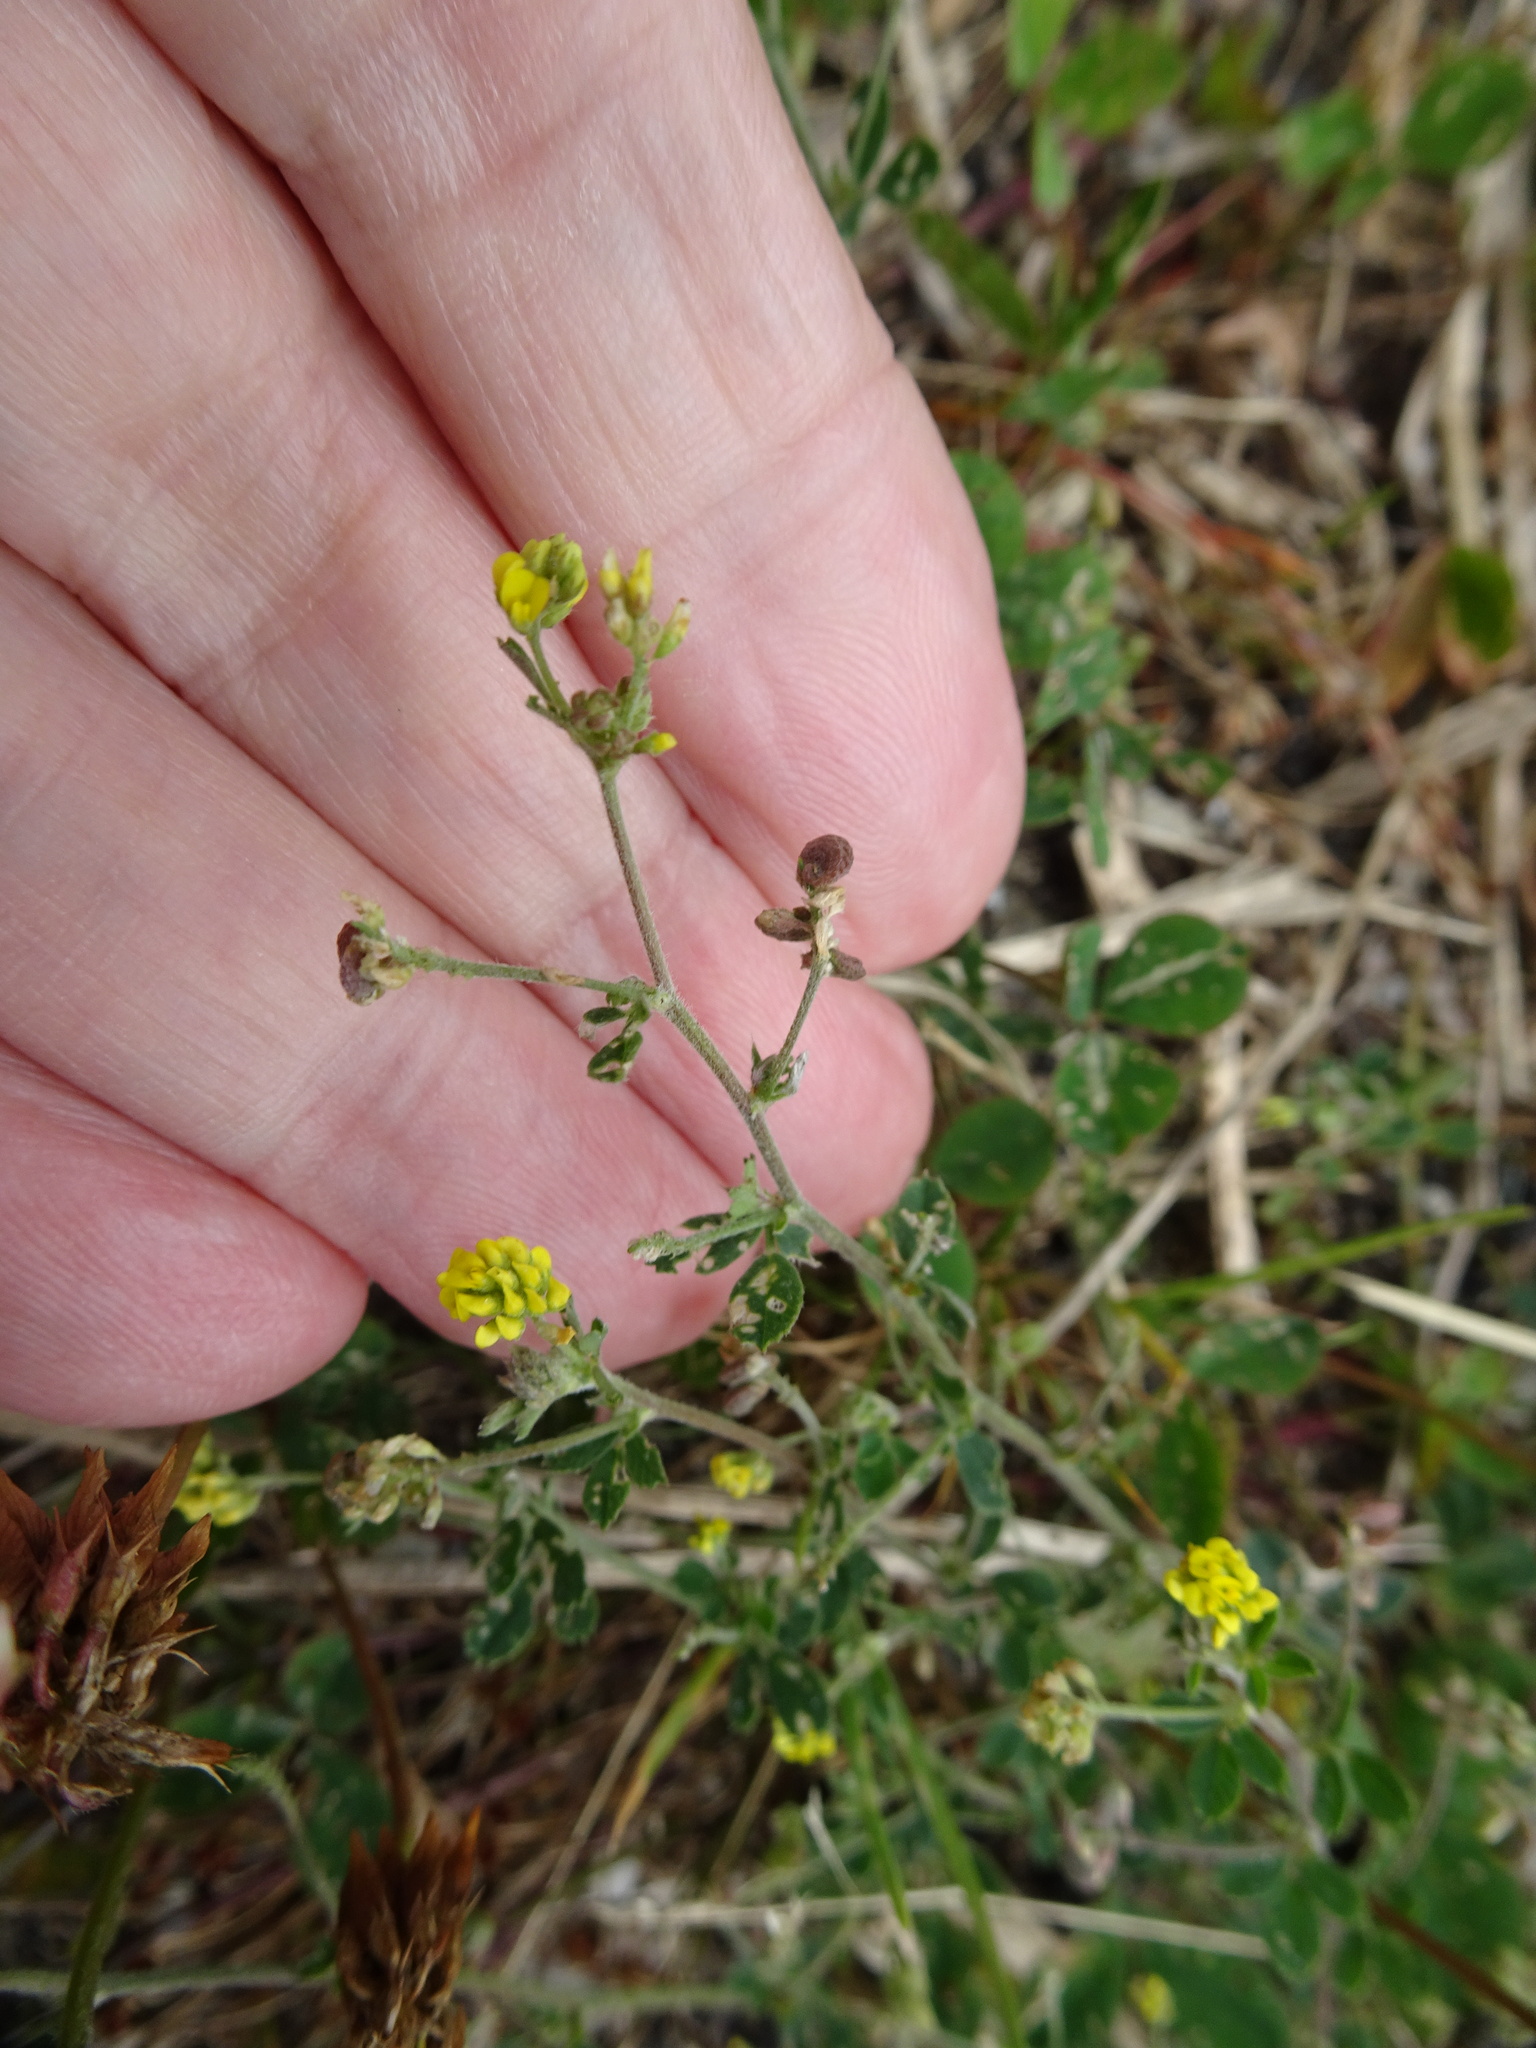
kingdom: Plantae
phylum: Tracheophyta
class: Magnoliopsida
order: Fabales
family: Fabaceae
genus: Medicago
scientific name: Medicago lupulina
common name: Black medick
